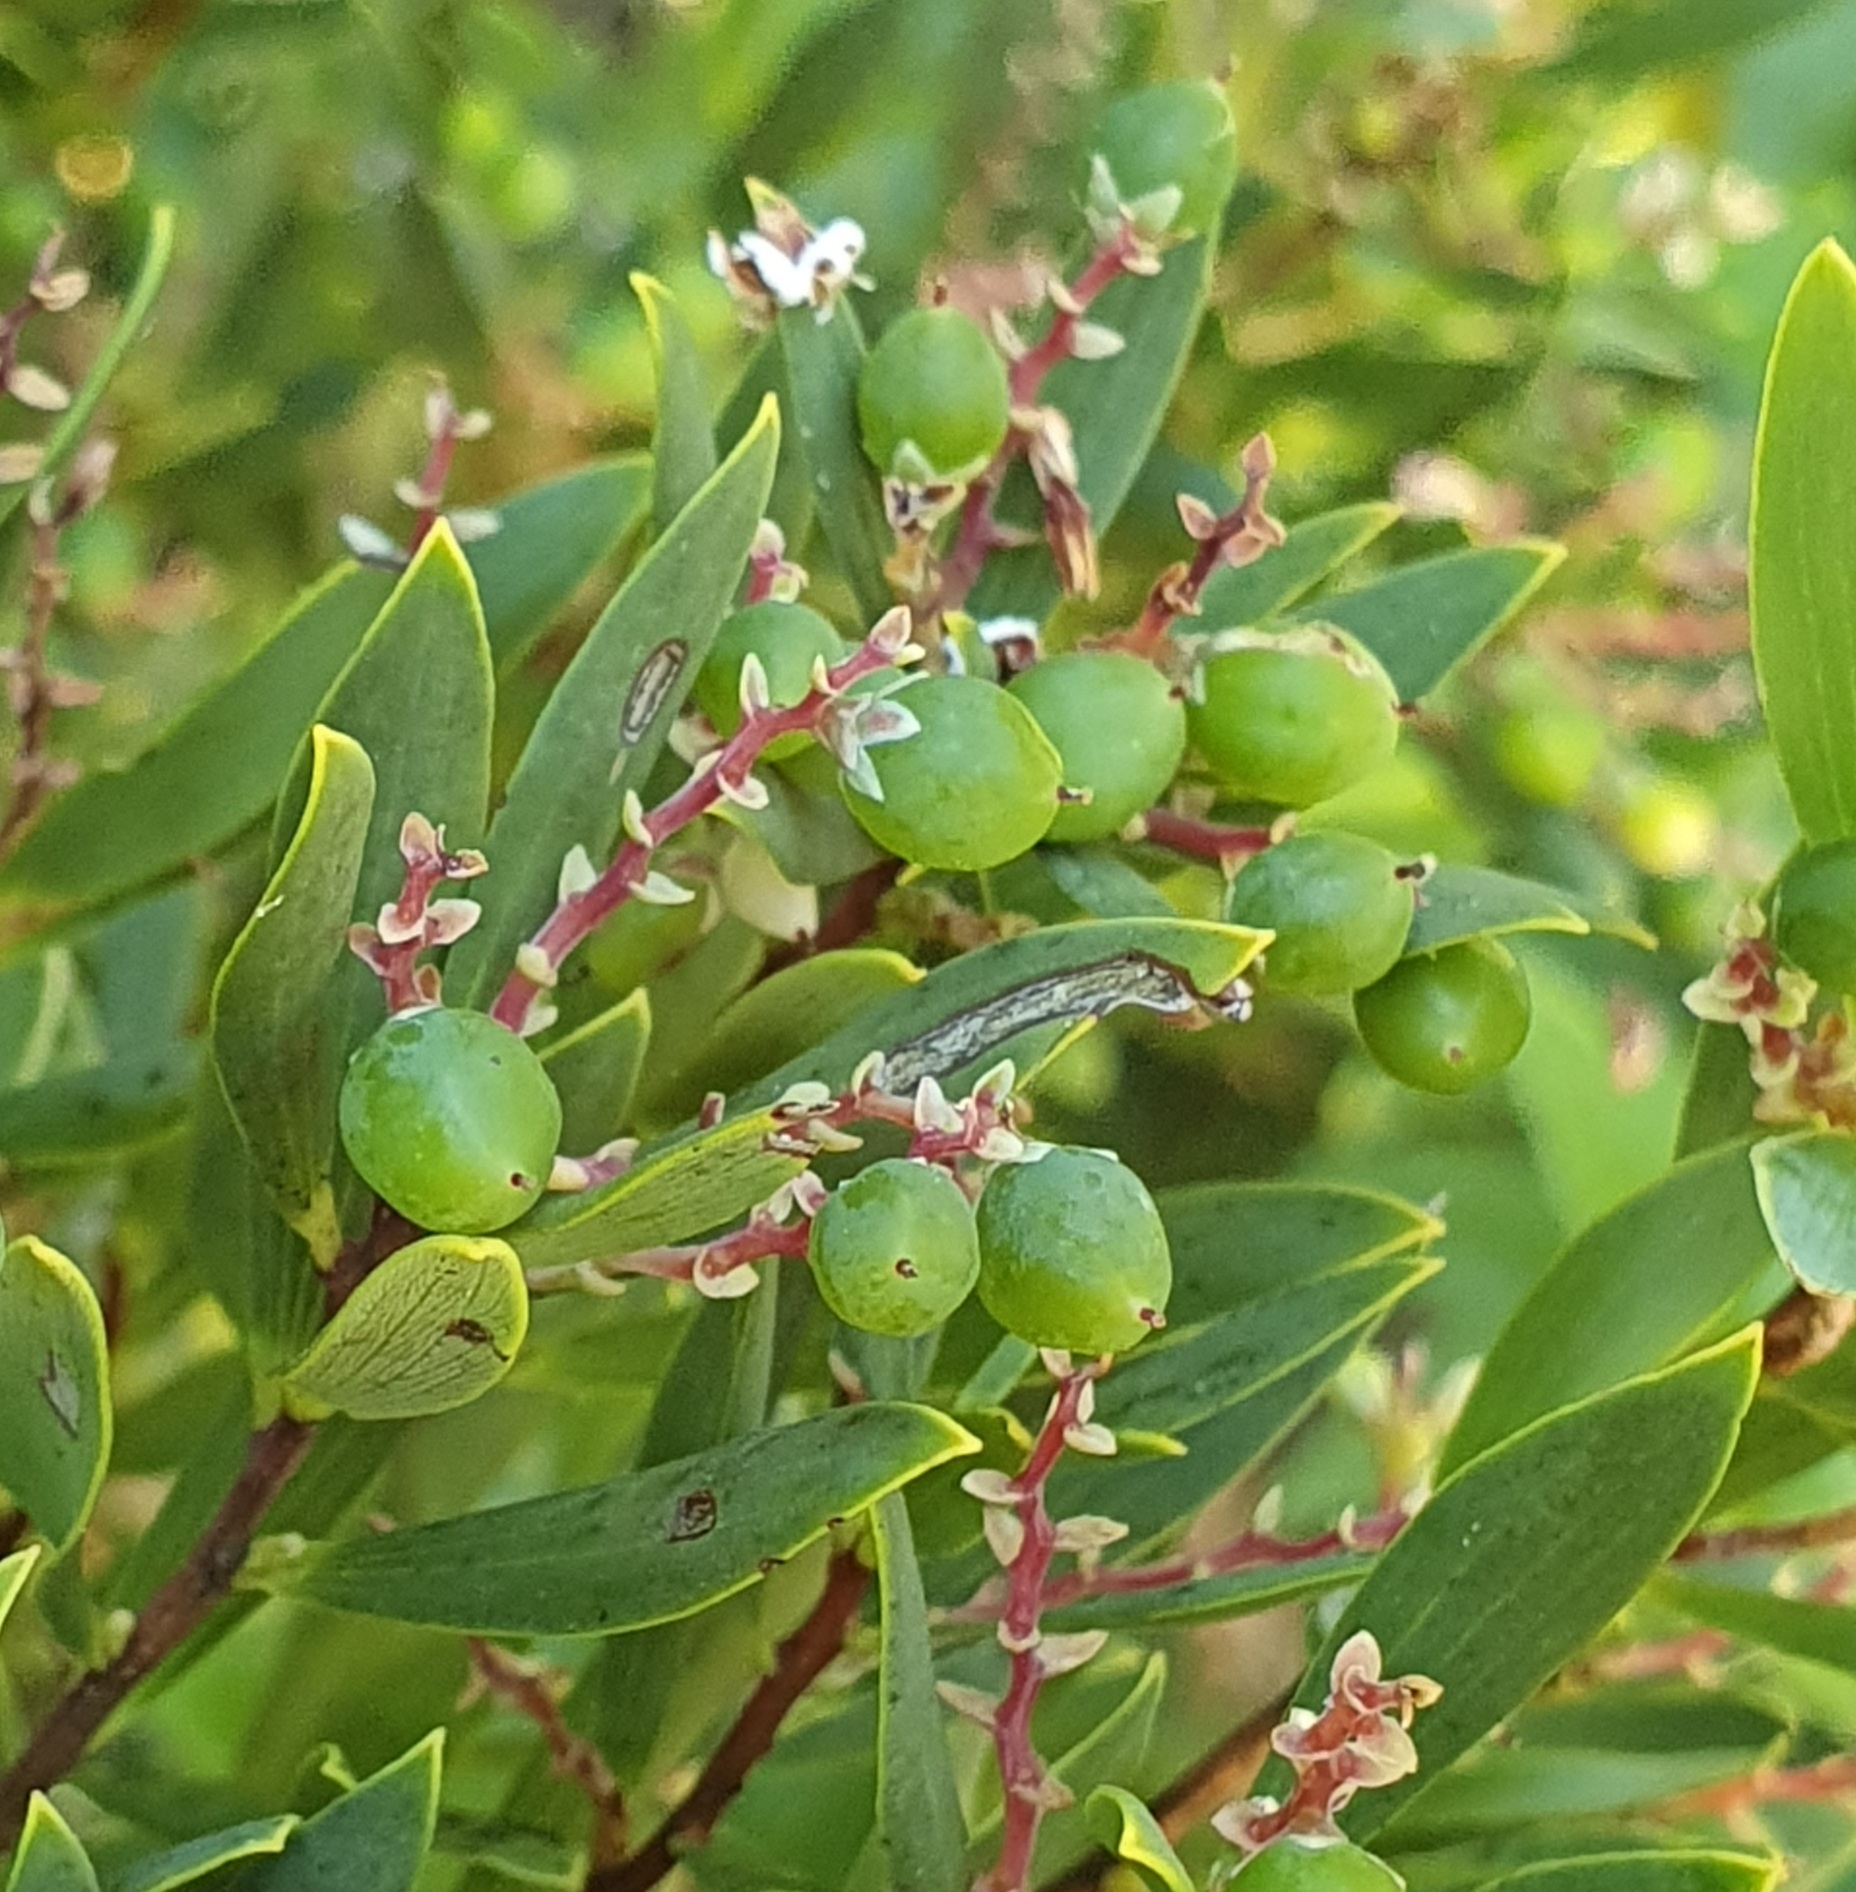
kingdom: Plantae
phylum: Tracheophyta
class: Magnoliopsida
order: Ericales
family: Ericaceae
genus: Leptecophylla
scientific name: Leptecophylla parvifolia
